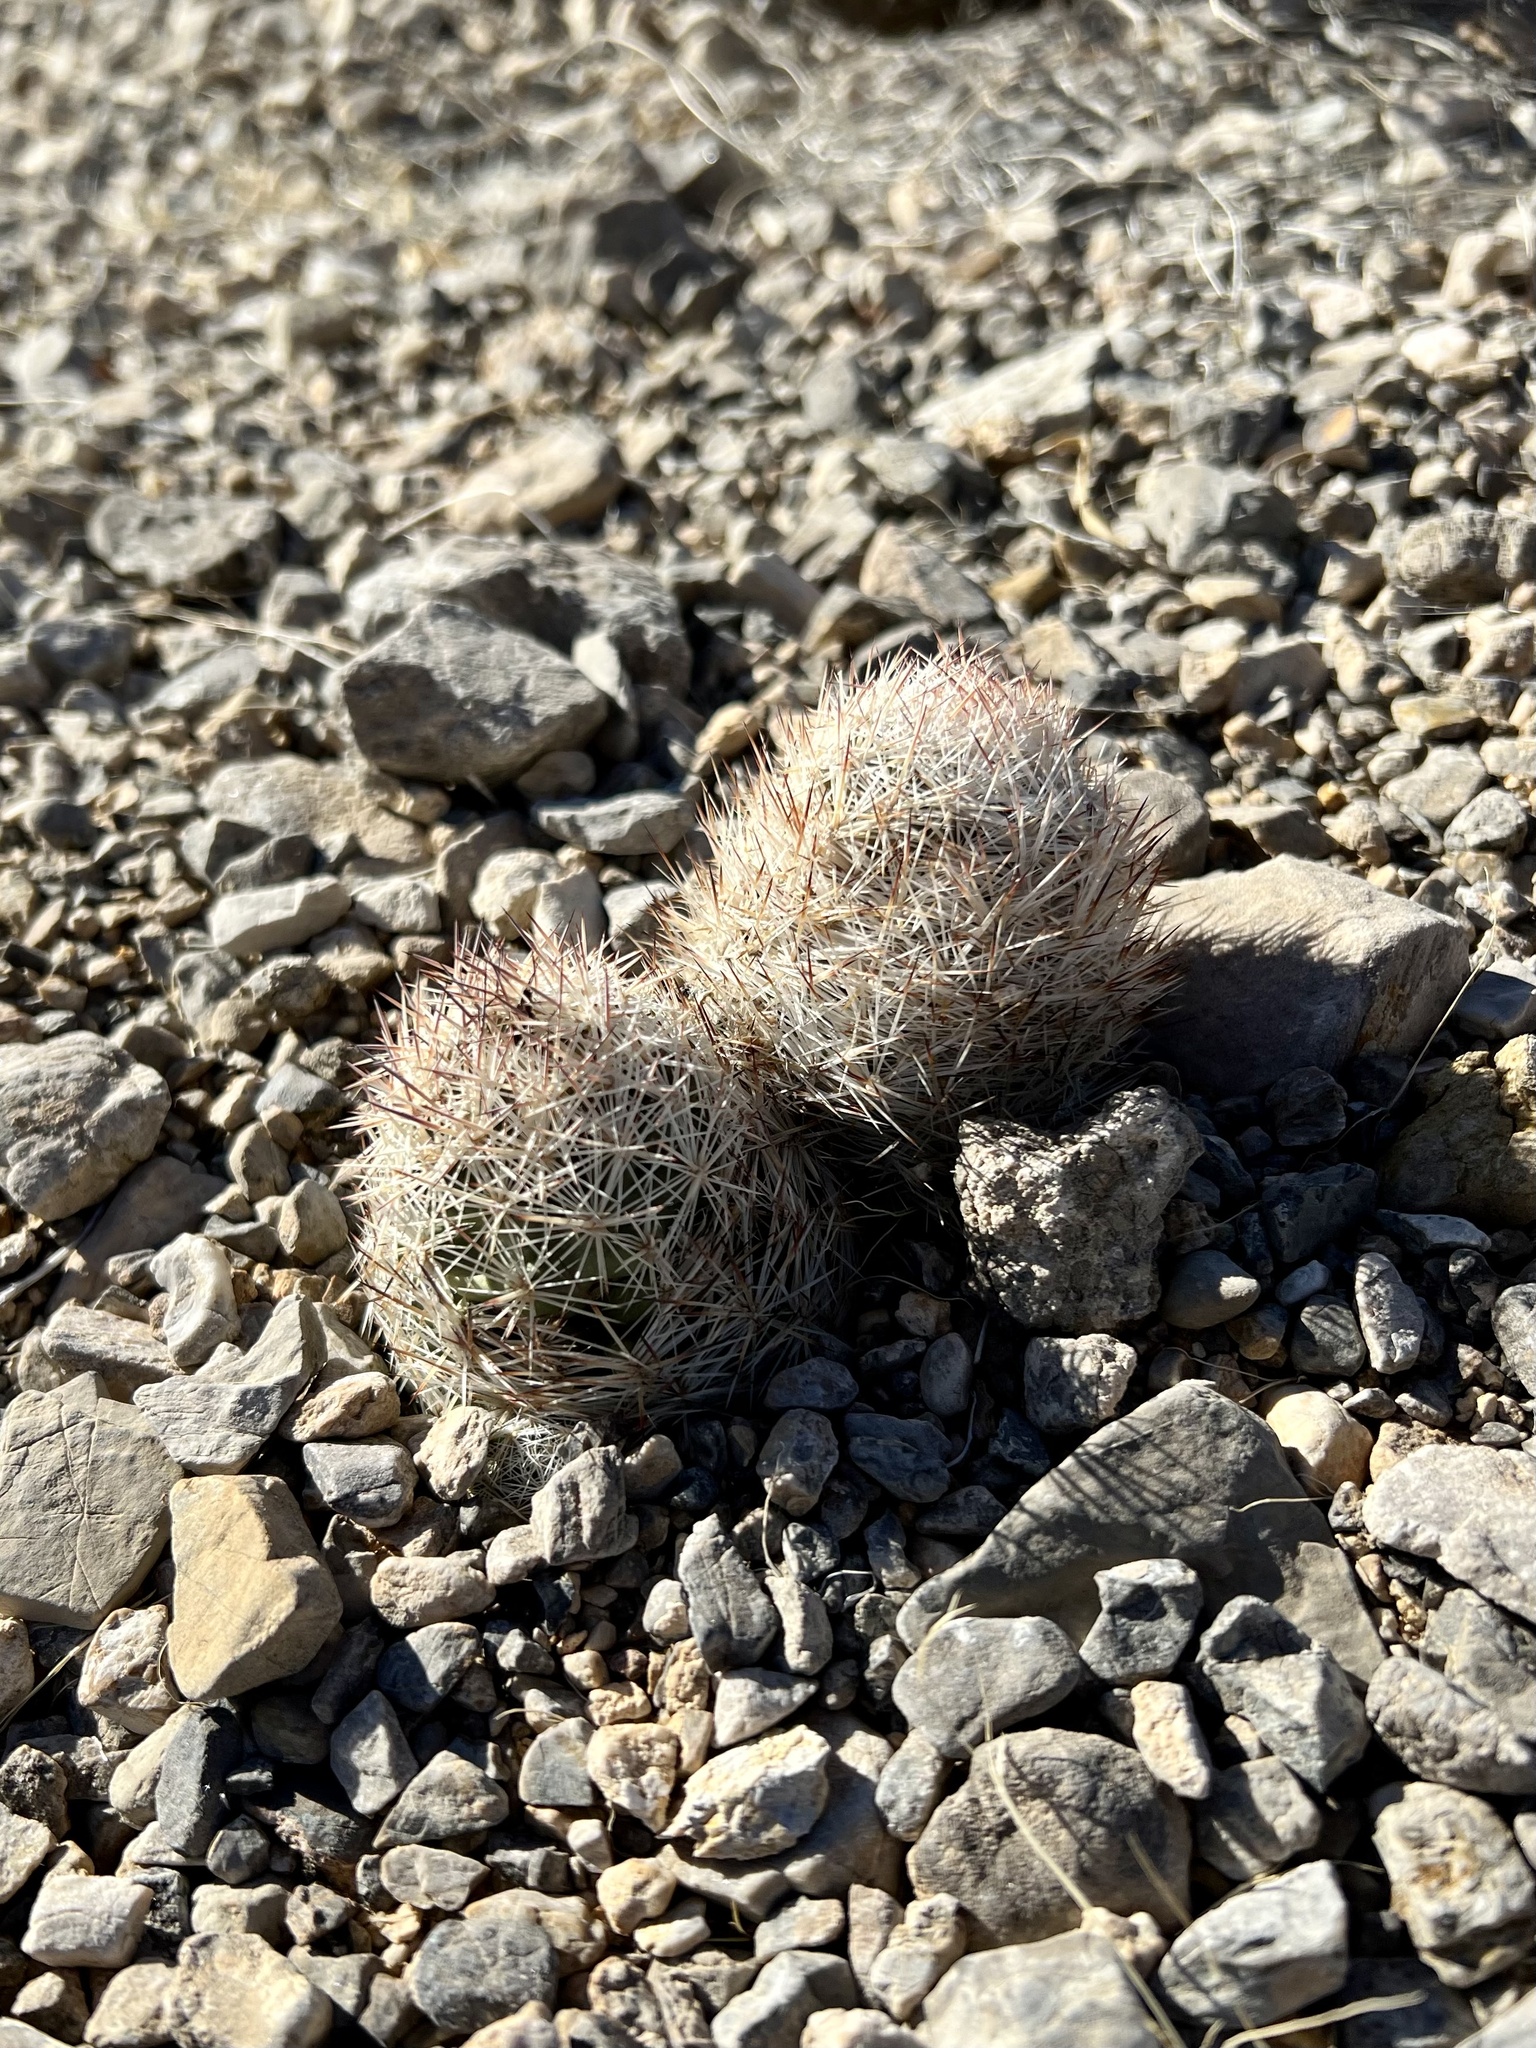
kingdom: Plantae
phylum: Tracheophyta
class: Magnoliopsida
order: Caryophyllales
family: Cactaceae
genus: Pelecyphora
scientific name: Pelecyphora dasyacantha
